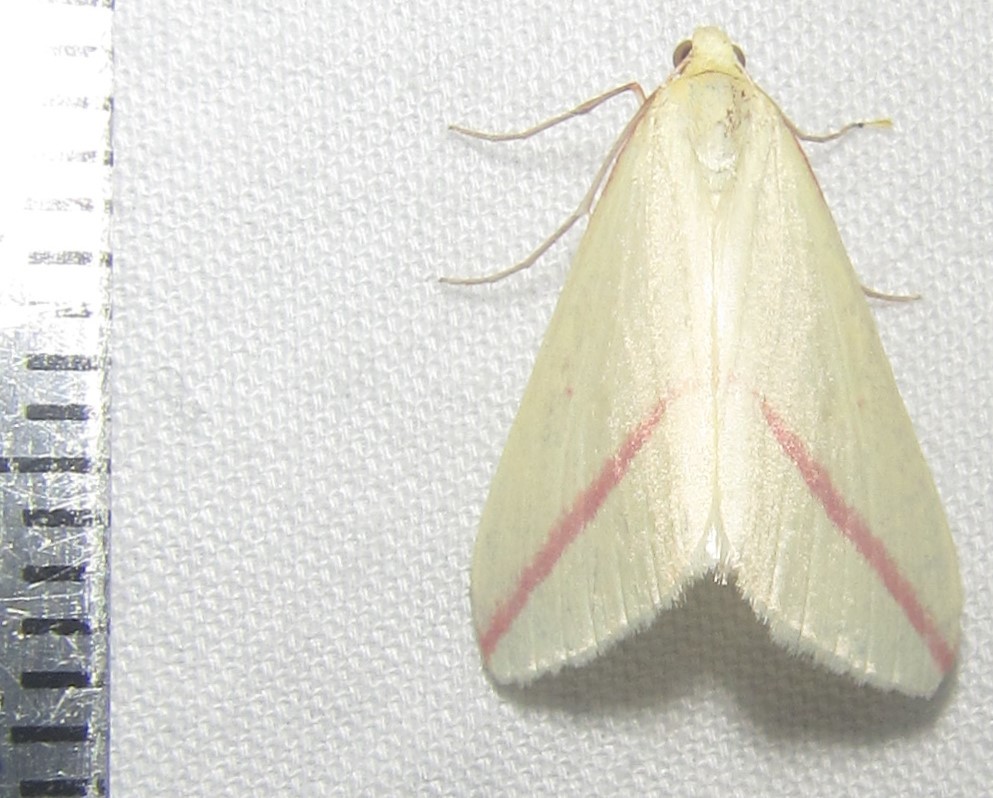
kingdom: Animalia
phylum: Arthropoda
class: Insecta
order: Lepidoptera
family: Geometridae
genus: Rhodometra
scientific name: Rhodometra sacraria
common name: Vestal
